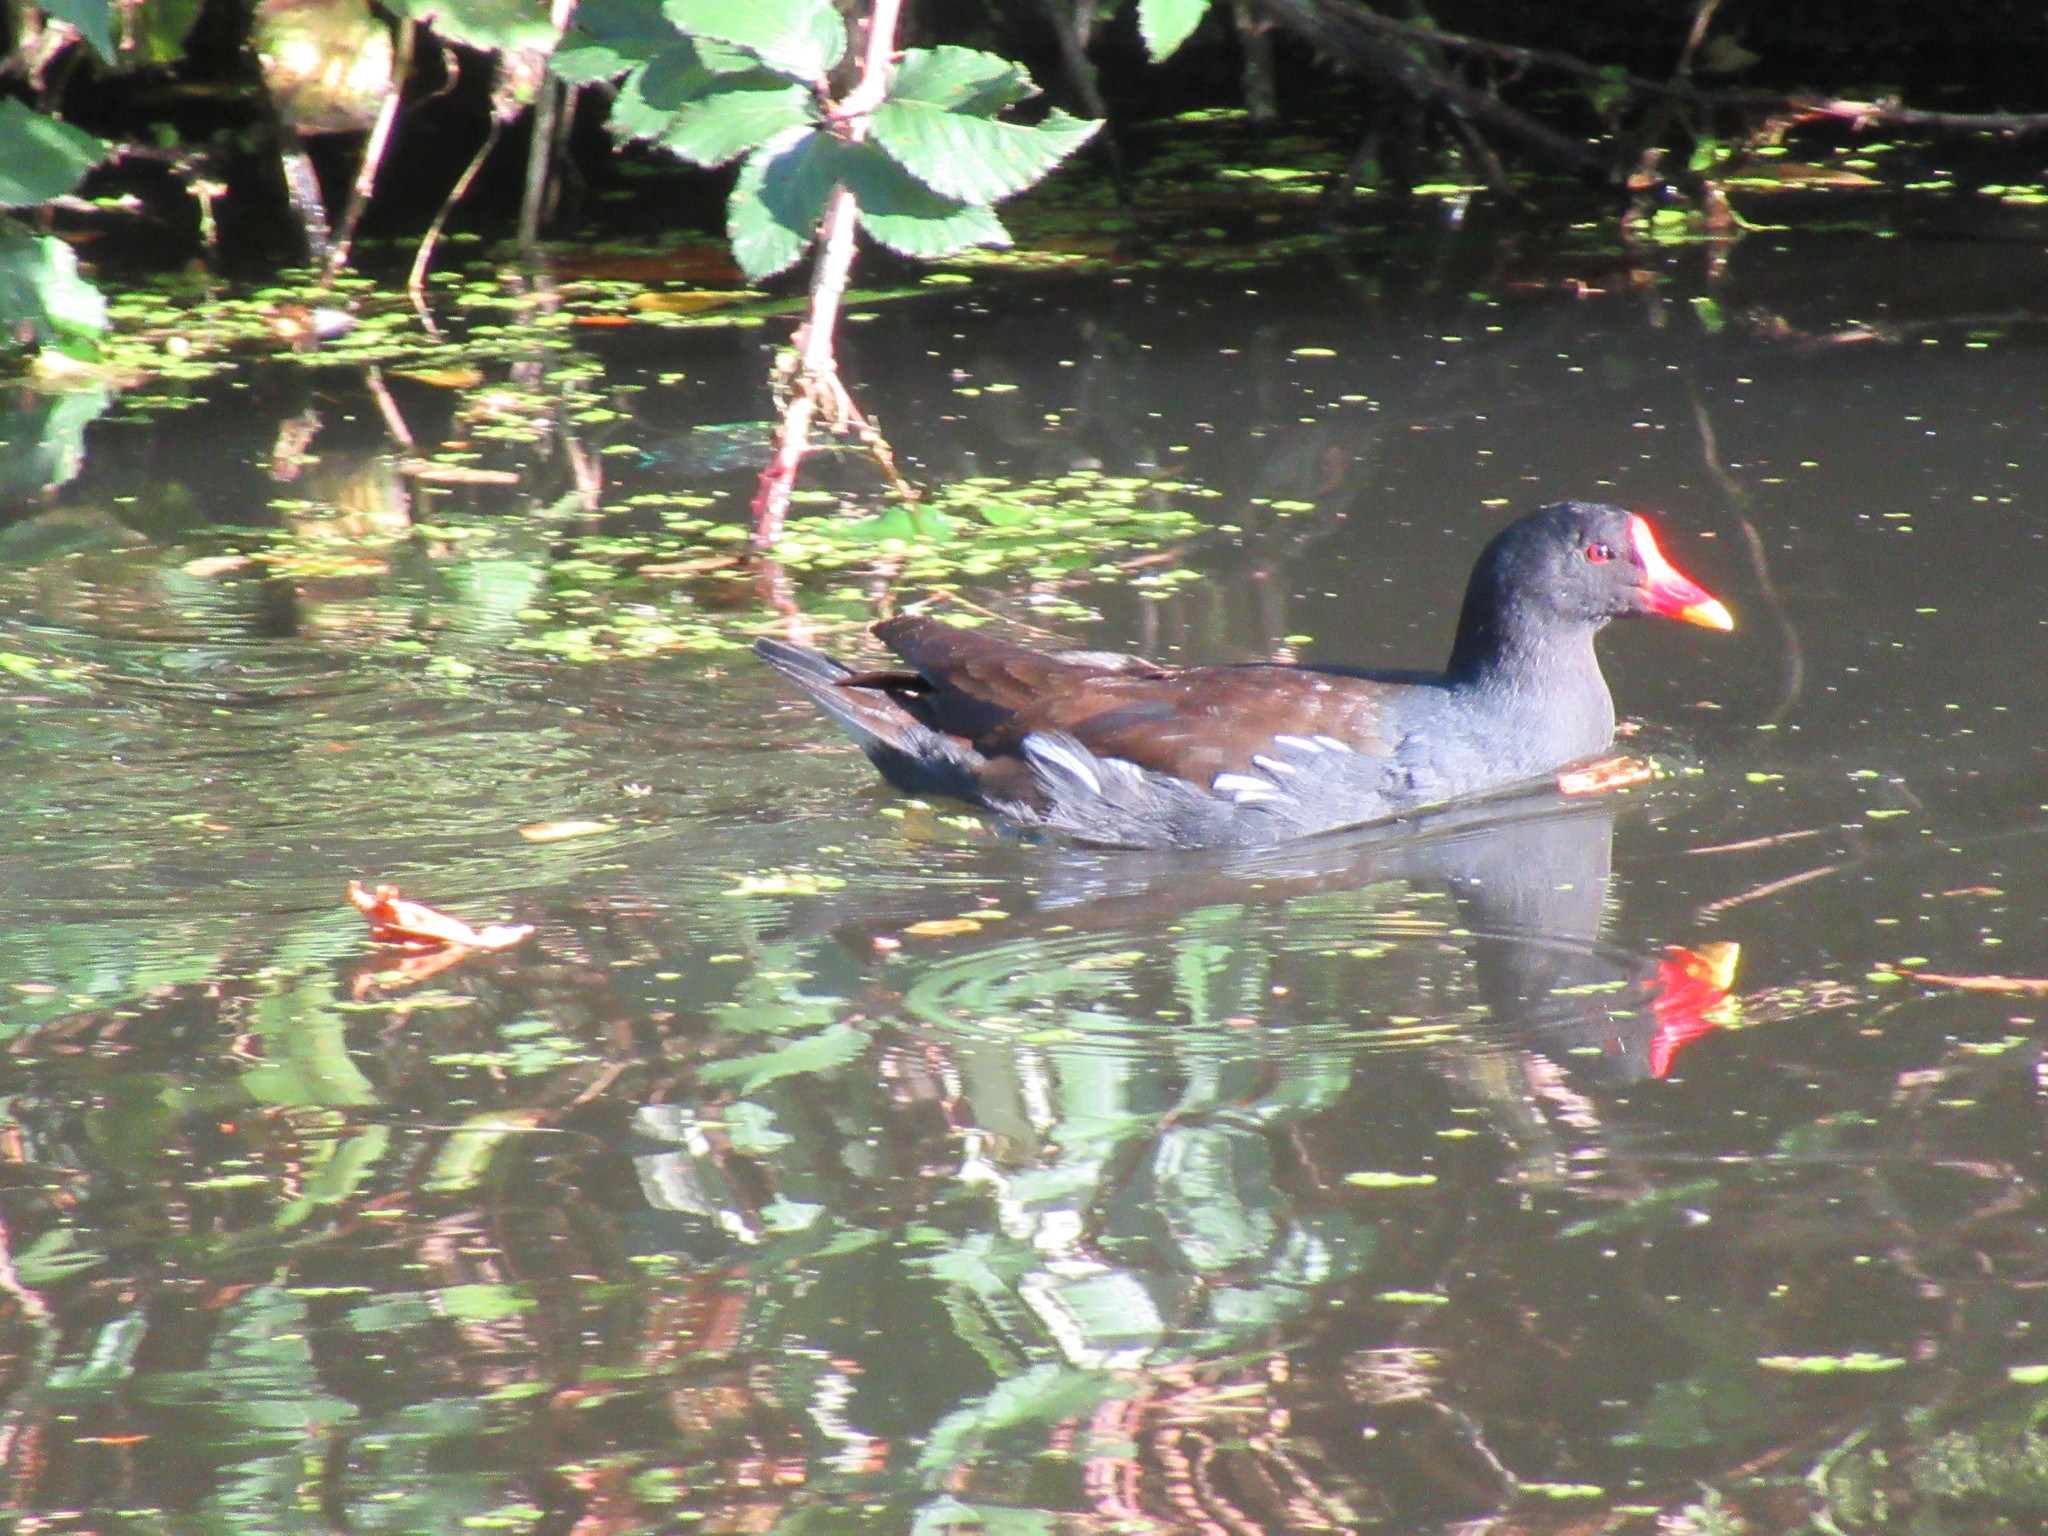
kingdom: Animalia
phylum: Chordata
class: Aves
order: Gruiformes
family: Rallidae
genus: Gallinula
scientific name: Gallinula chloropus
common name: Common moorhen
